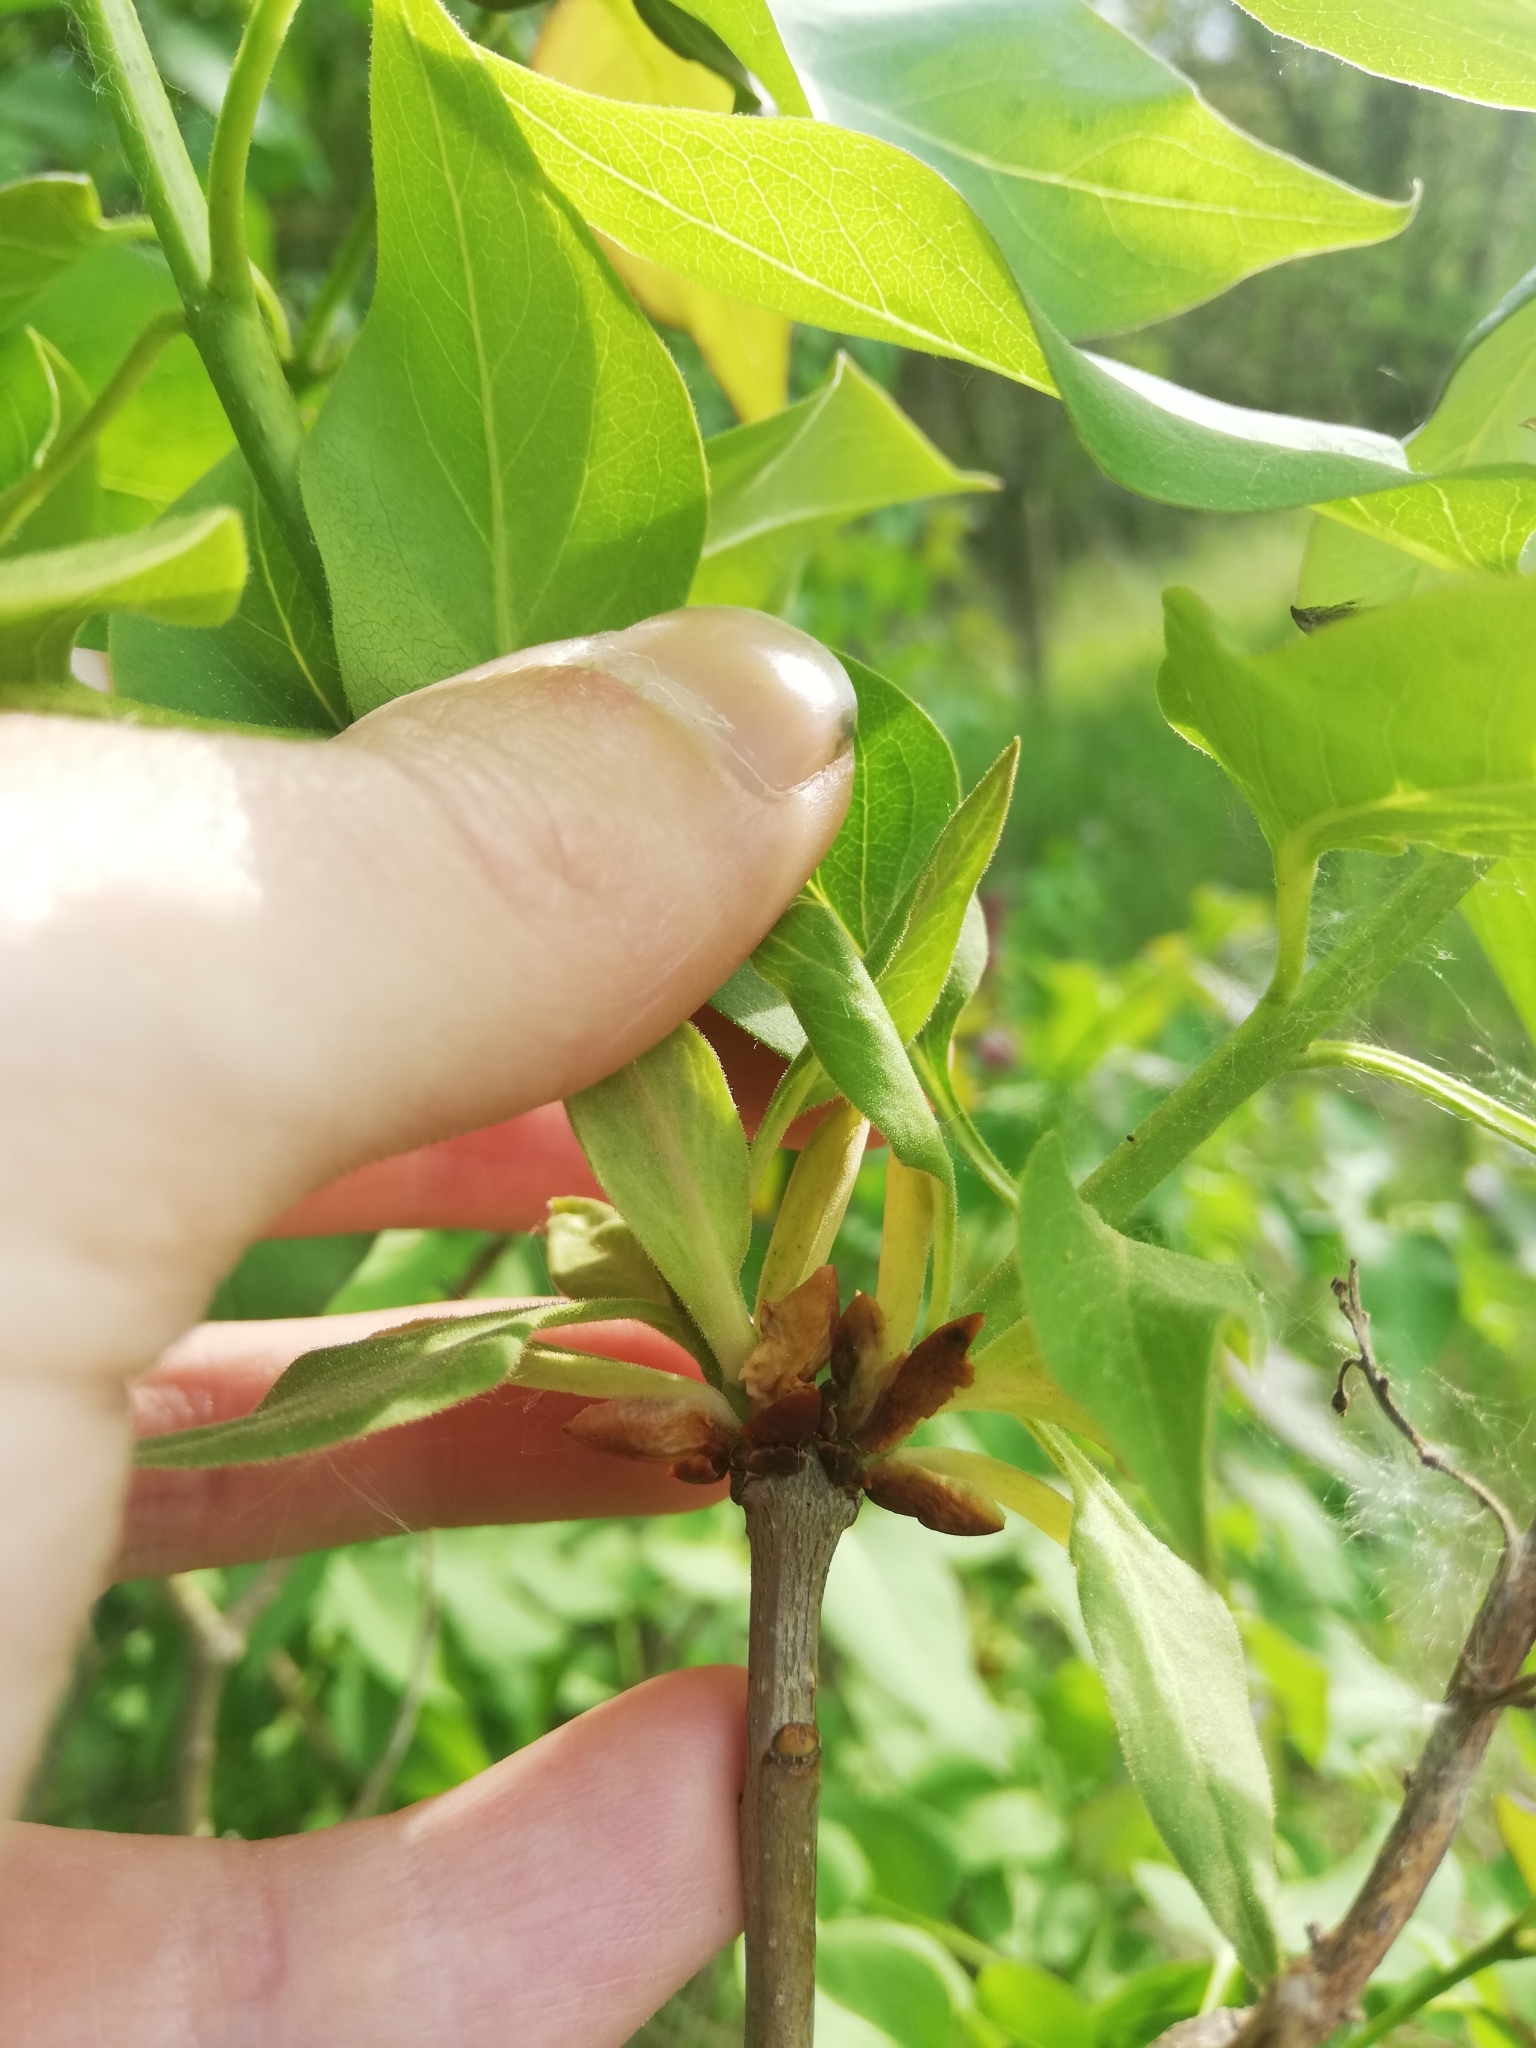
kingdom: Plantae
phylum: Tracheophyta
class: Magnoliopsida
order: Lamiales
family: Oleaceae
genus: Syringa
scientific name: Syringa vulgaris
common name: Common lilac
